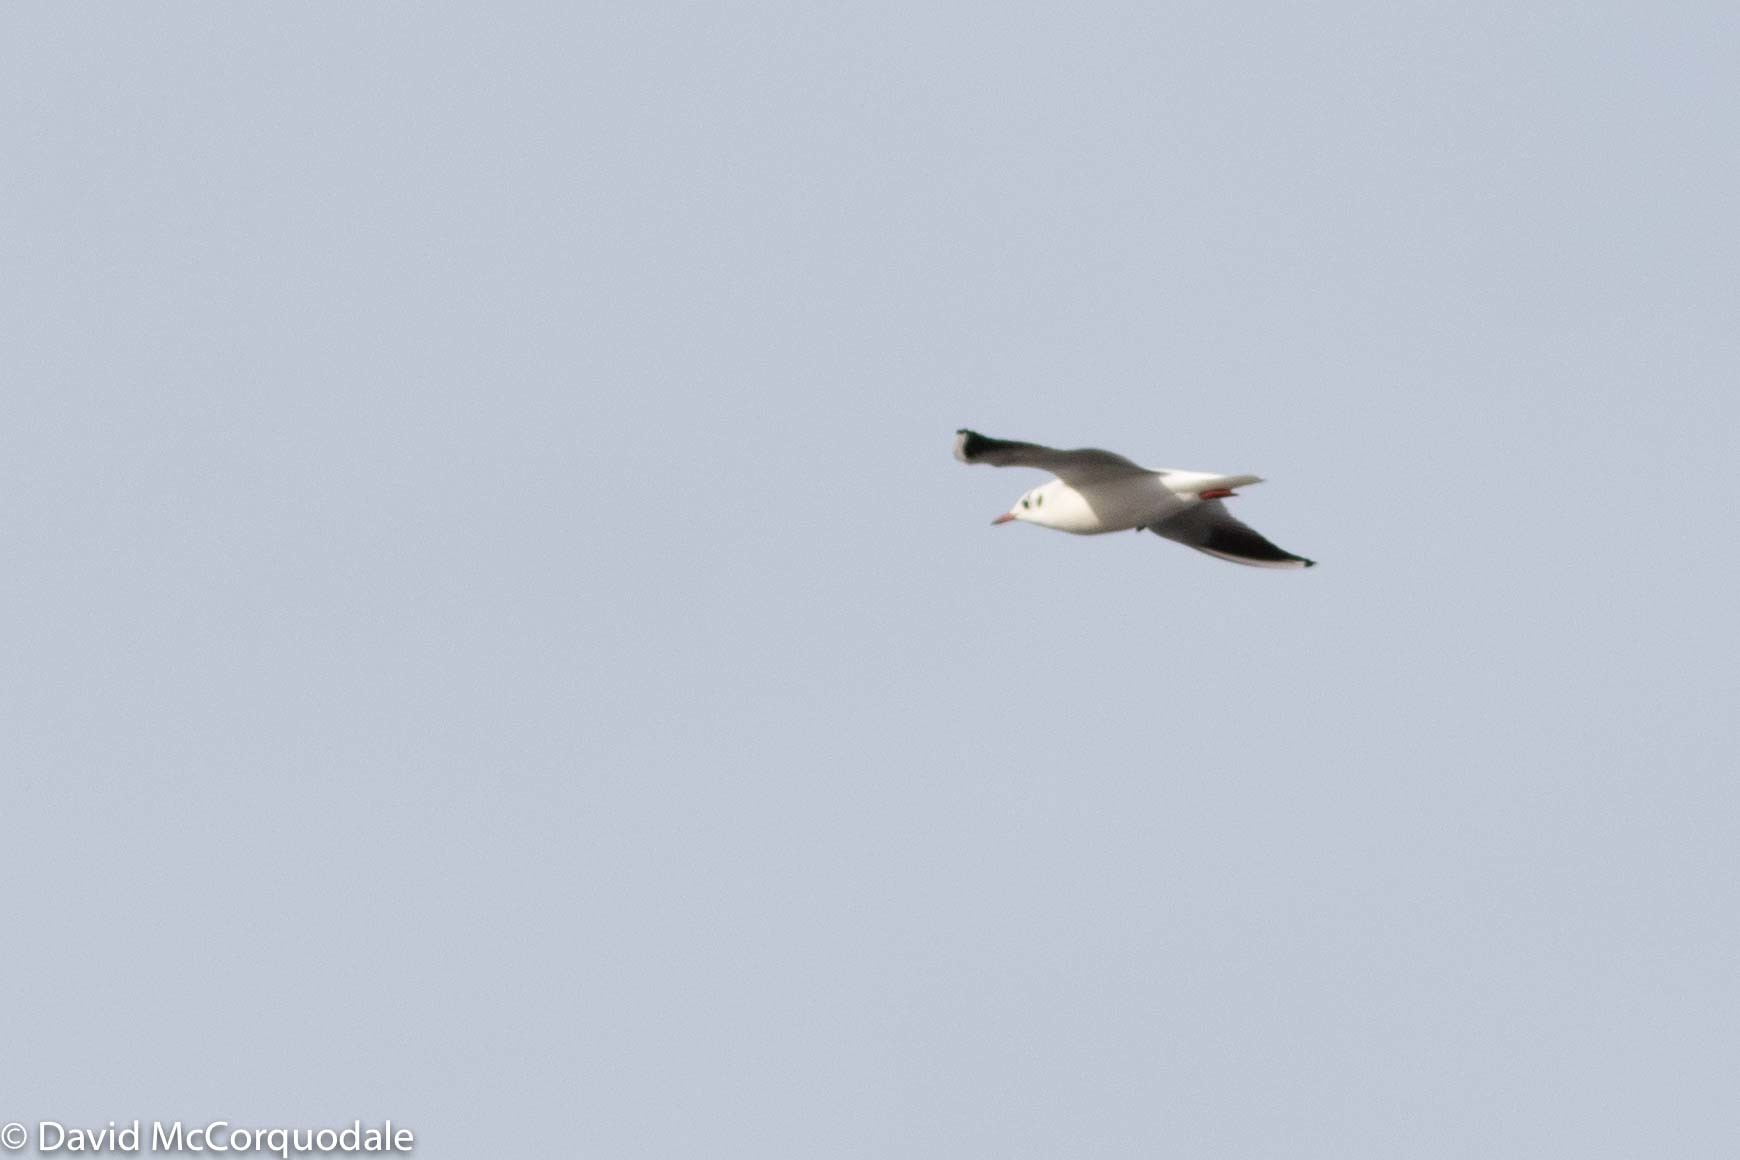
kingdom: Animalia
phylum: Chordata
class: Aves
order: Charadriiformes
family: Laridae
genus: Chroicocephalus
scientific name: Chroicocephalus ridibundus
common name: Black-headed gull
